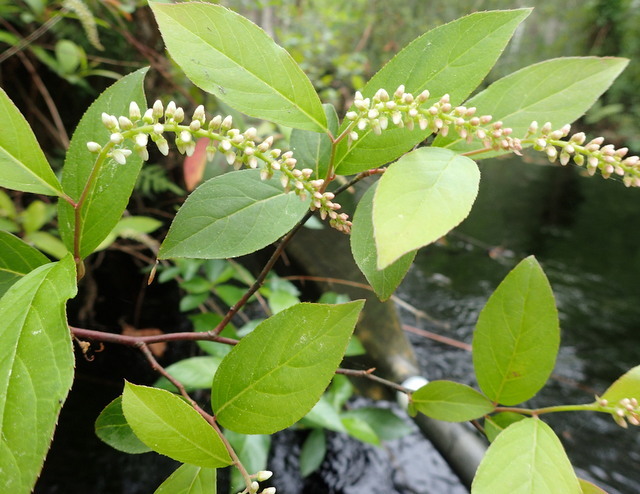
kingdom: Plantae
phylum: Tracheophyta
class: Magnoliopsida
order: Saxifragales
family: Iteaceae
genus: Itea
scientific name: Itea virginica
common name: Sweetspire
